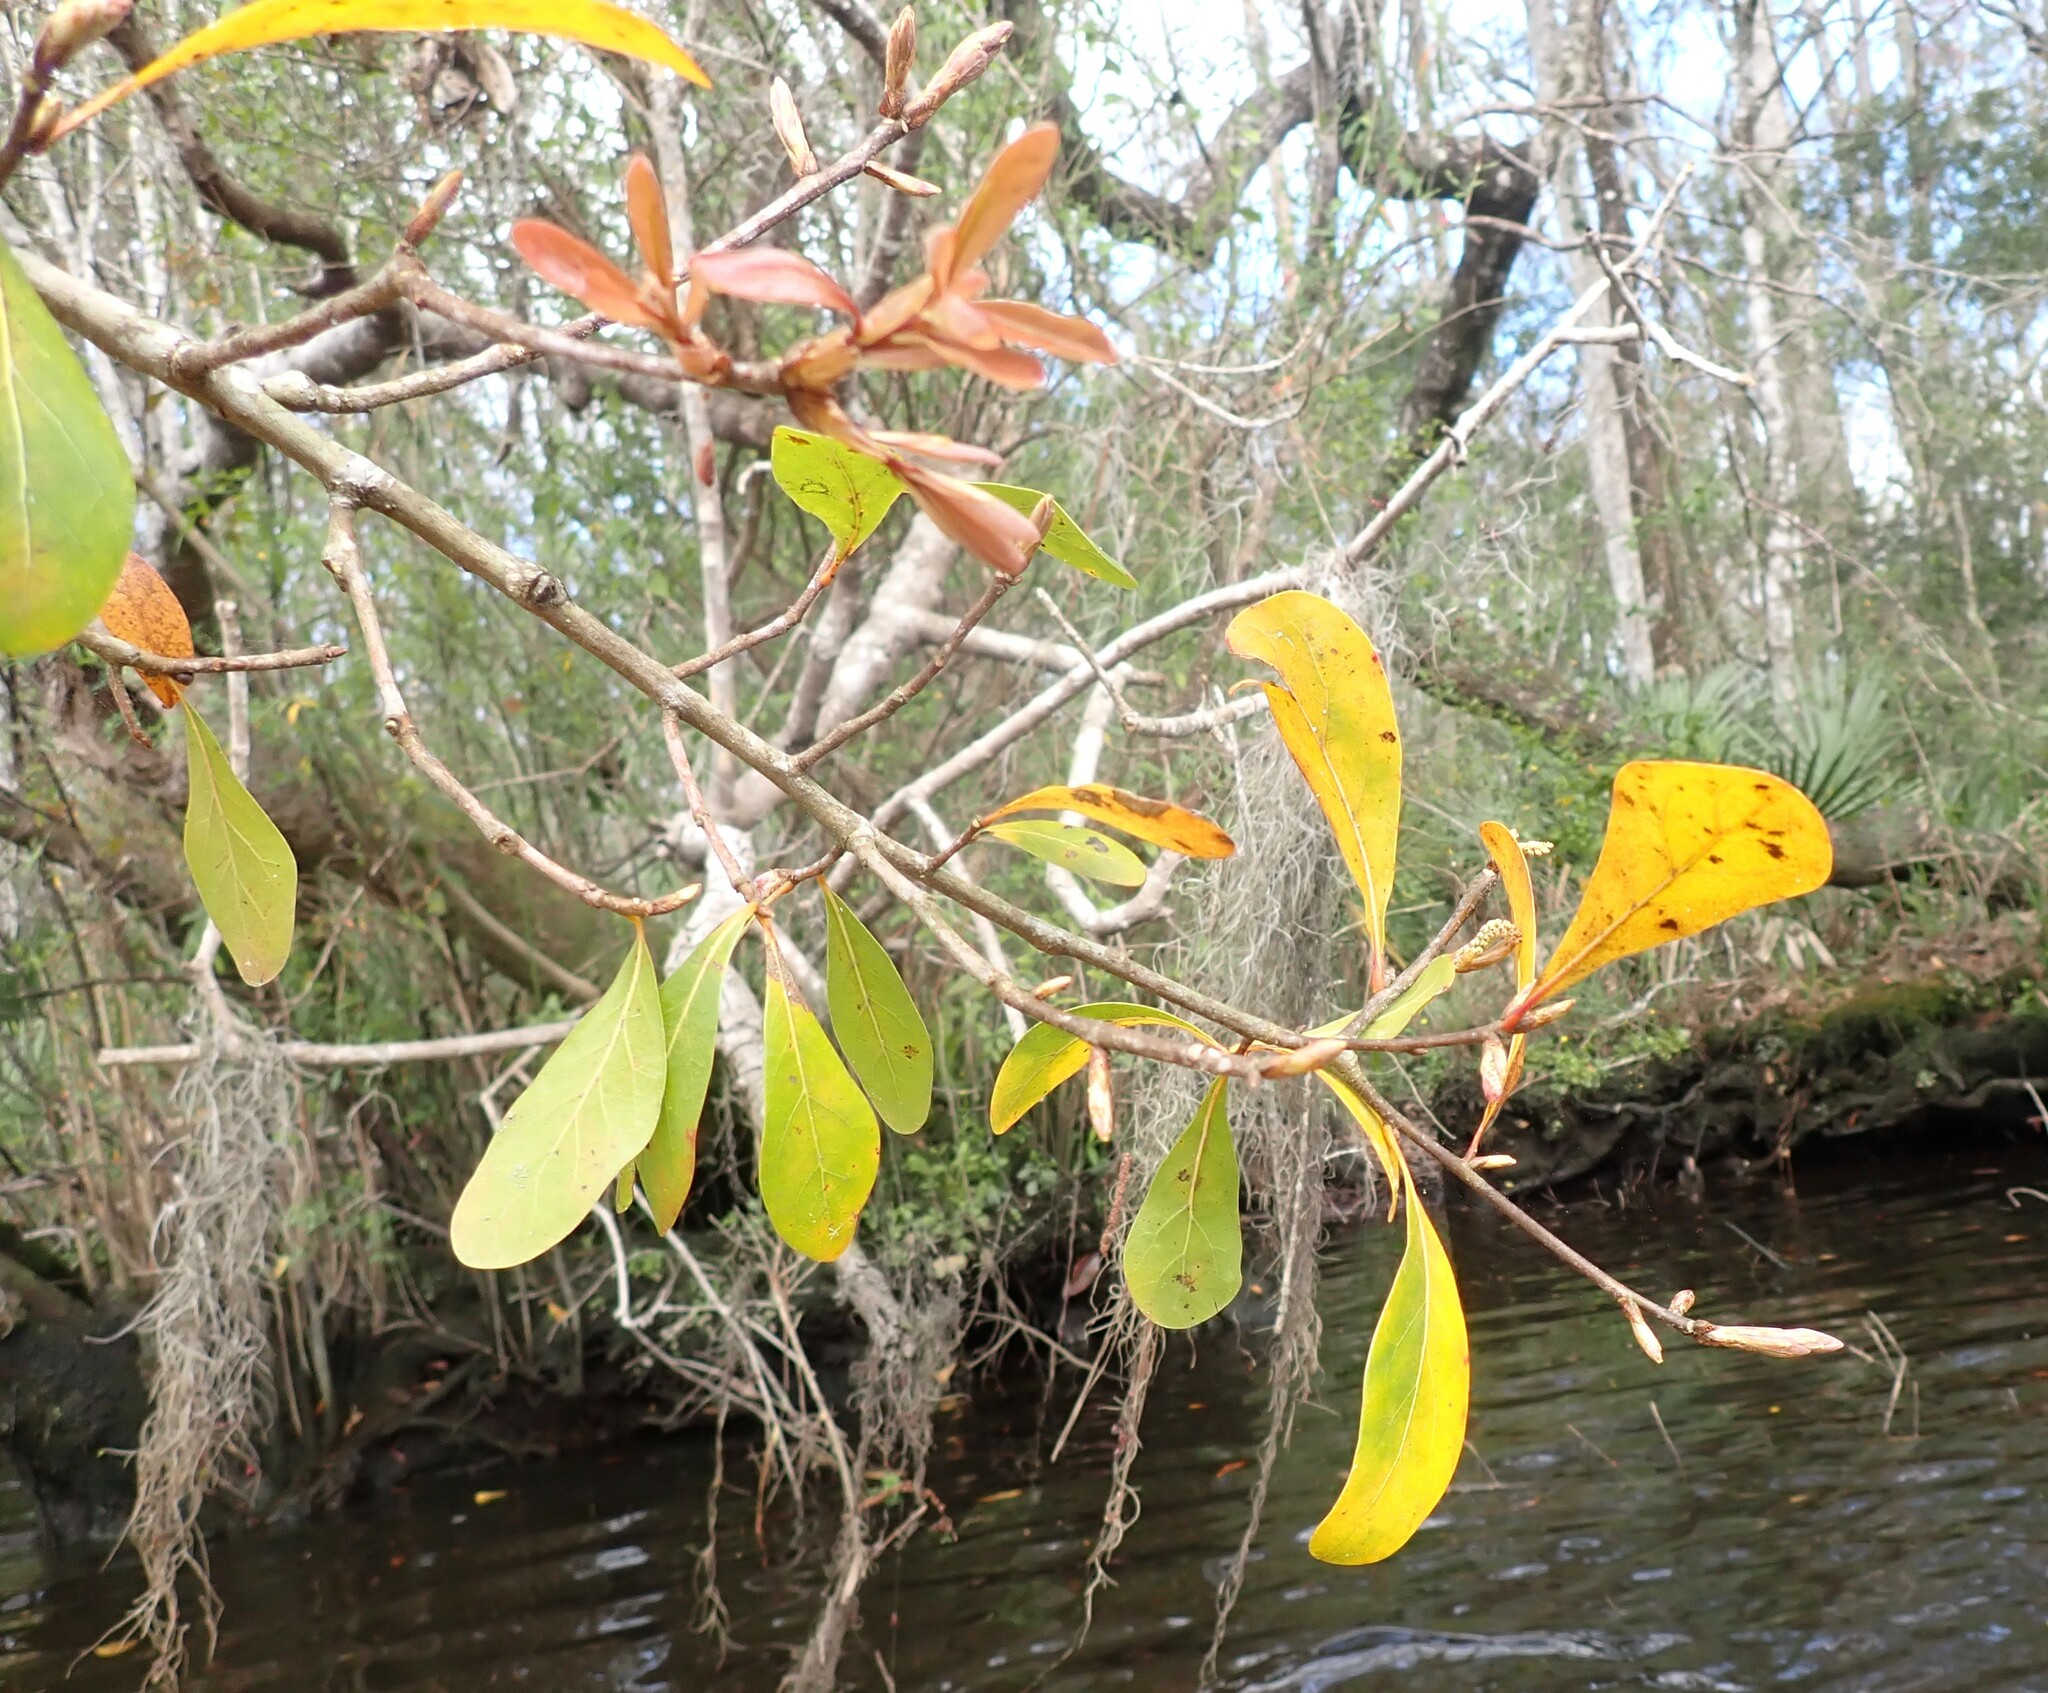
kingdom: Plantae
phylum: Tracheophyta
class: Magnoliopsida
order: Fagales
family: Fagaceae
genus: Quercus
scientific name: Quercus nigra
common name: Water oak
